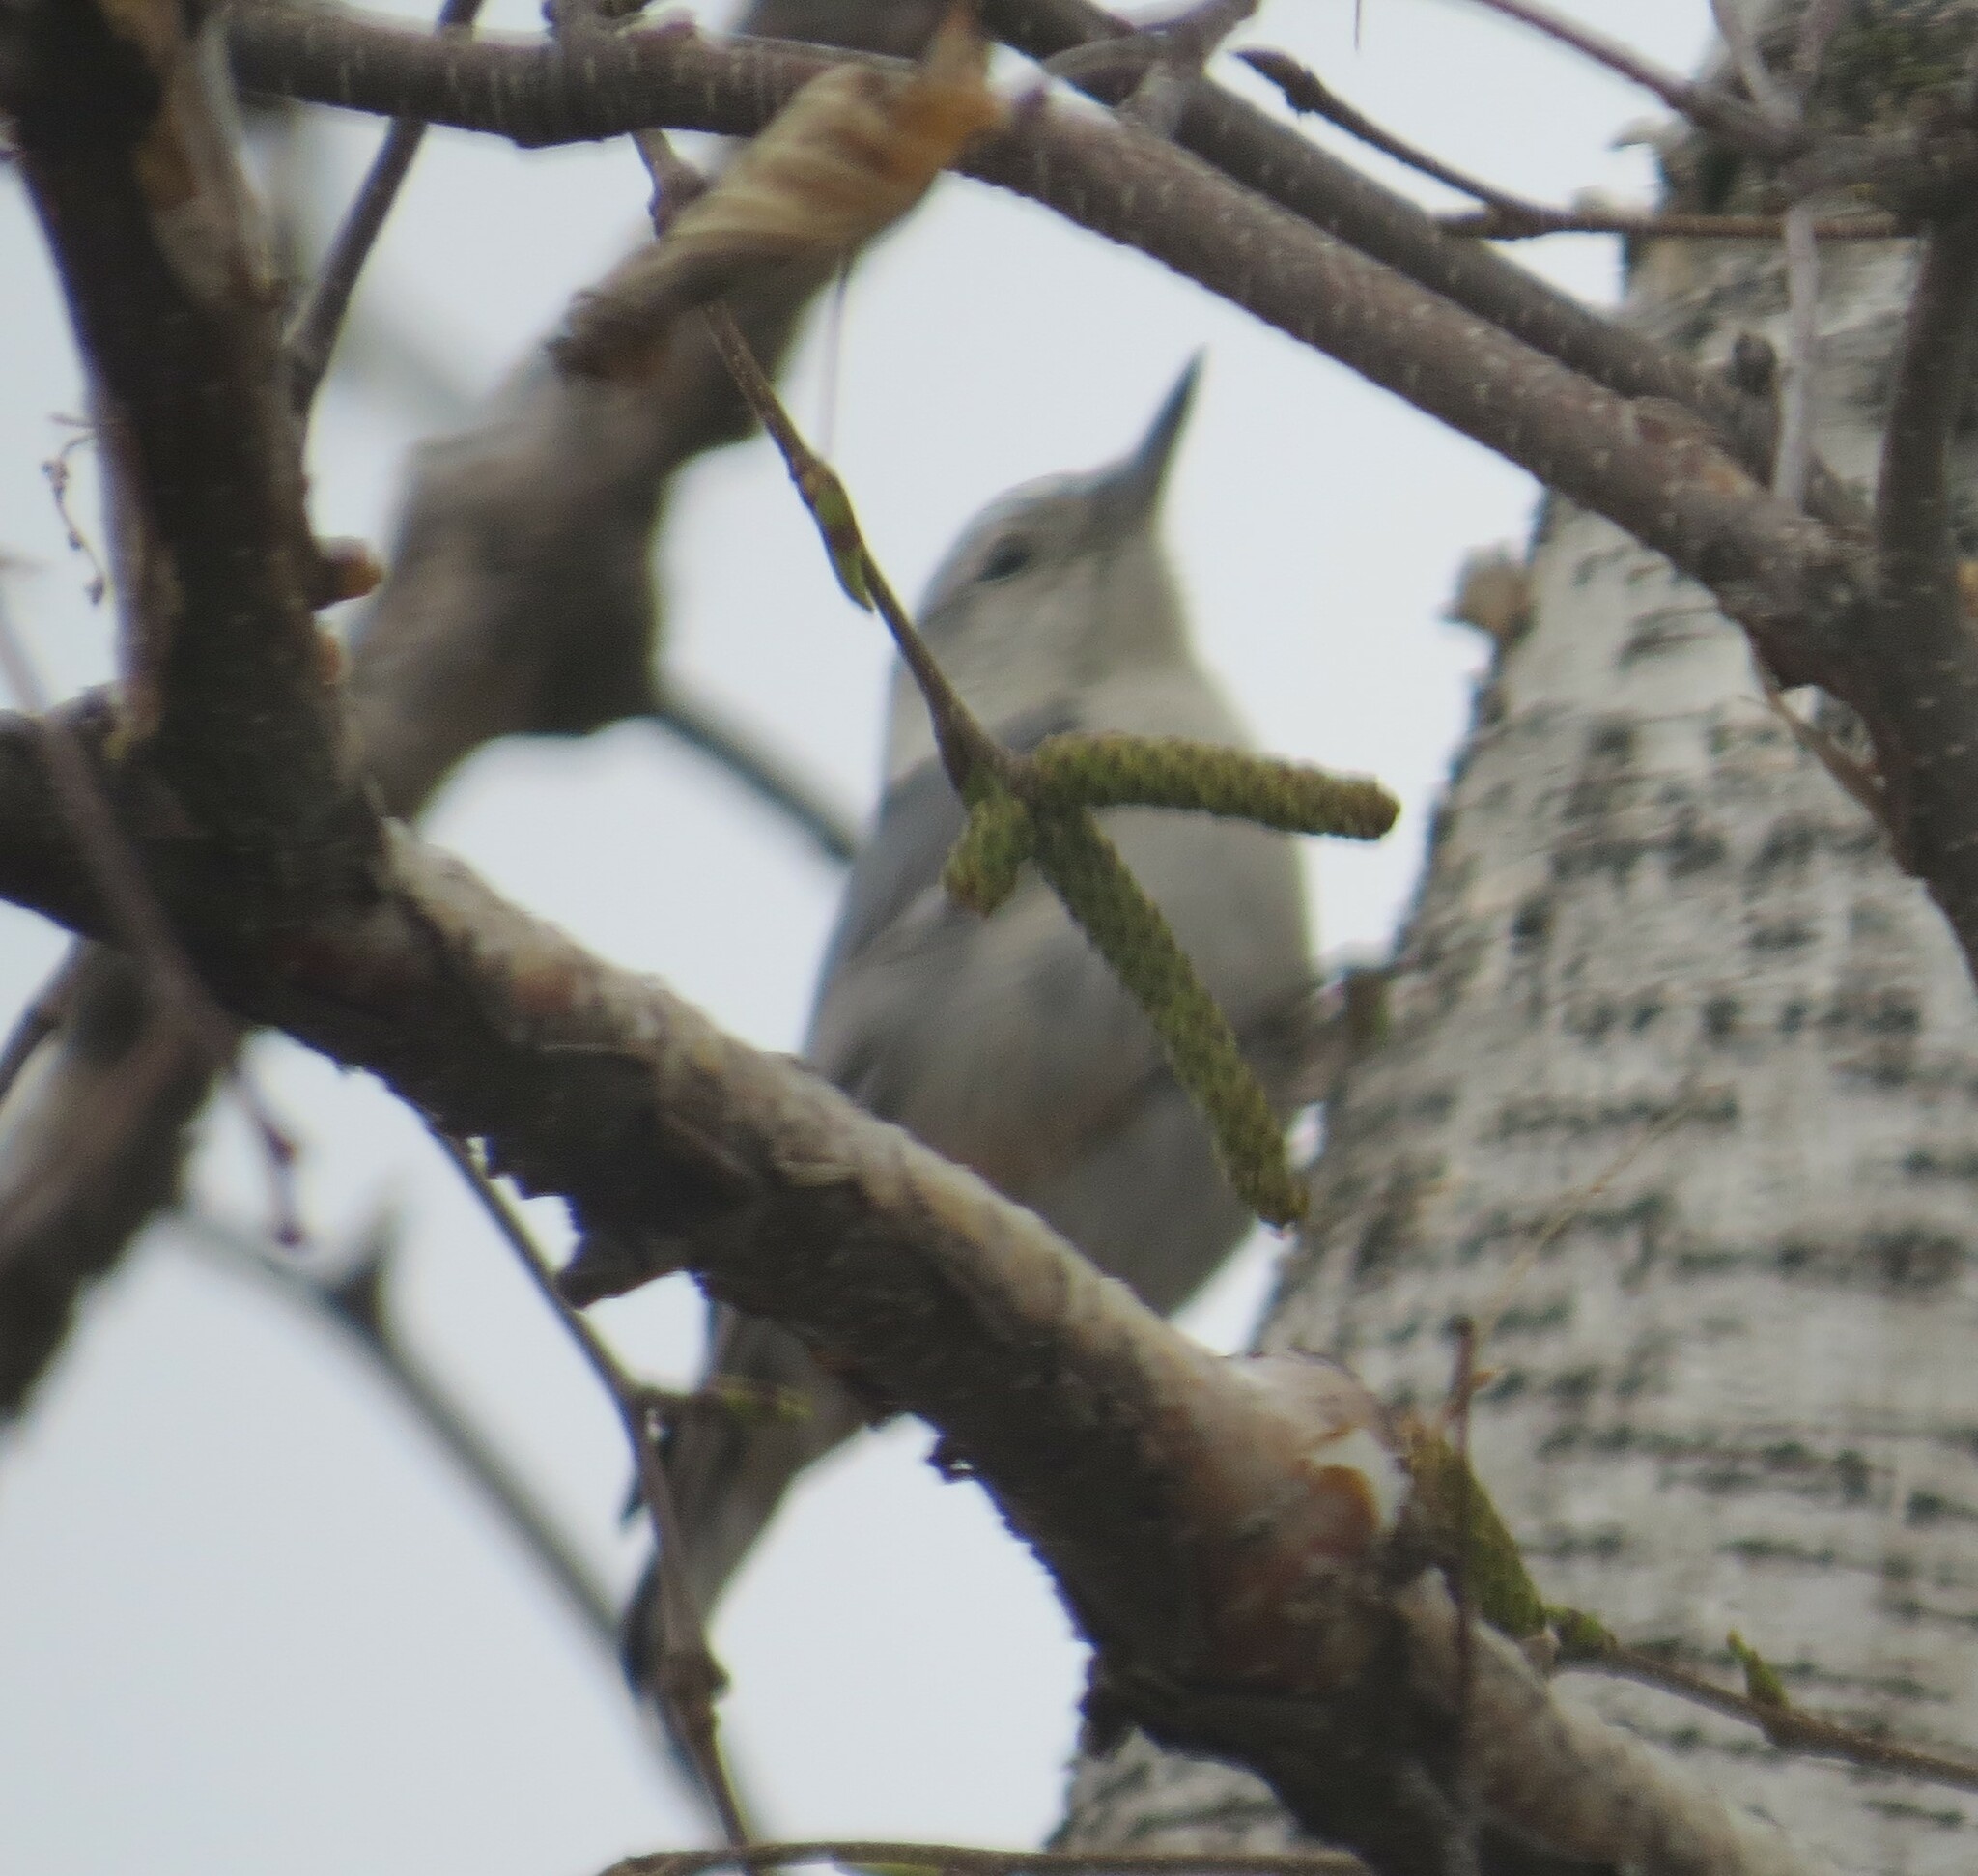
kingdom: Animalia
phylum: Chordata
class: Aves
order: Passeriformes
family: Sittidae
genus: Sitta
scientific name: Sitta carolinensis
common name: White-breasted nuthatch
